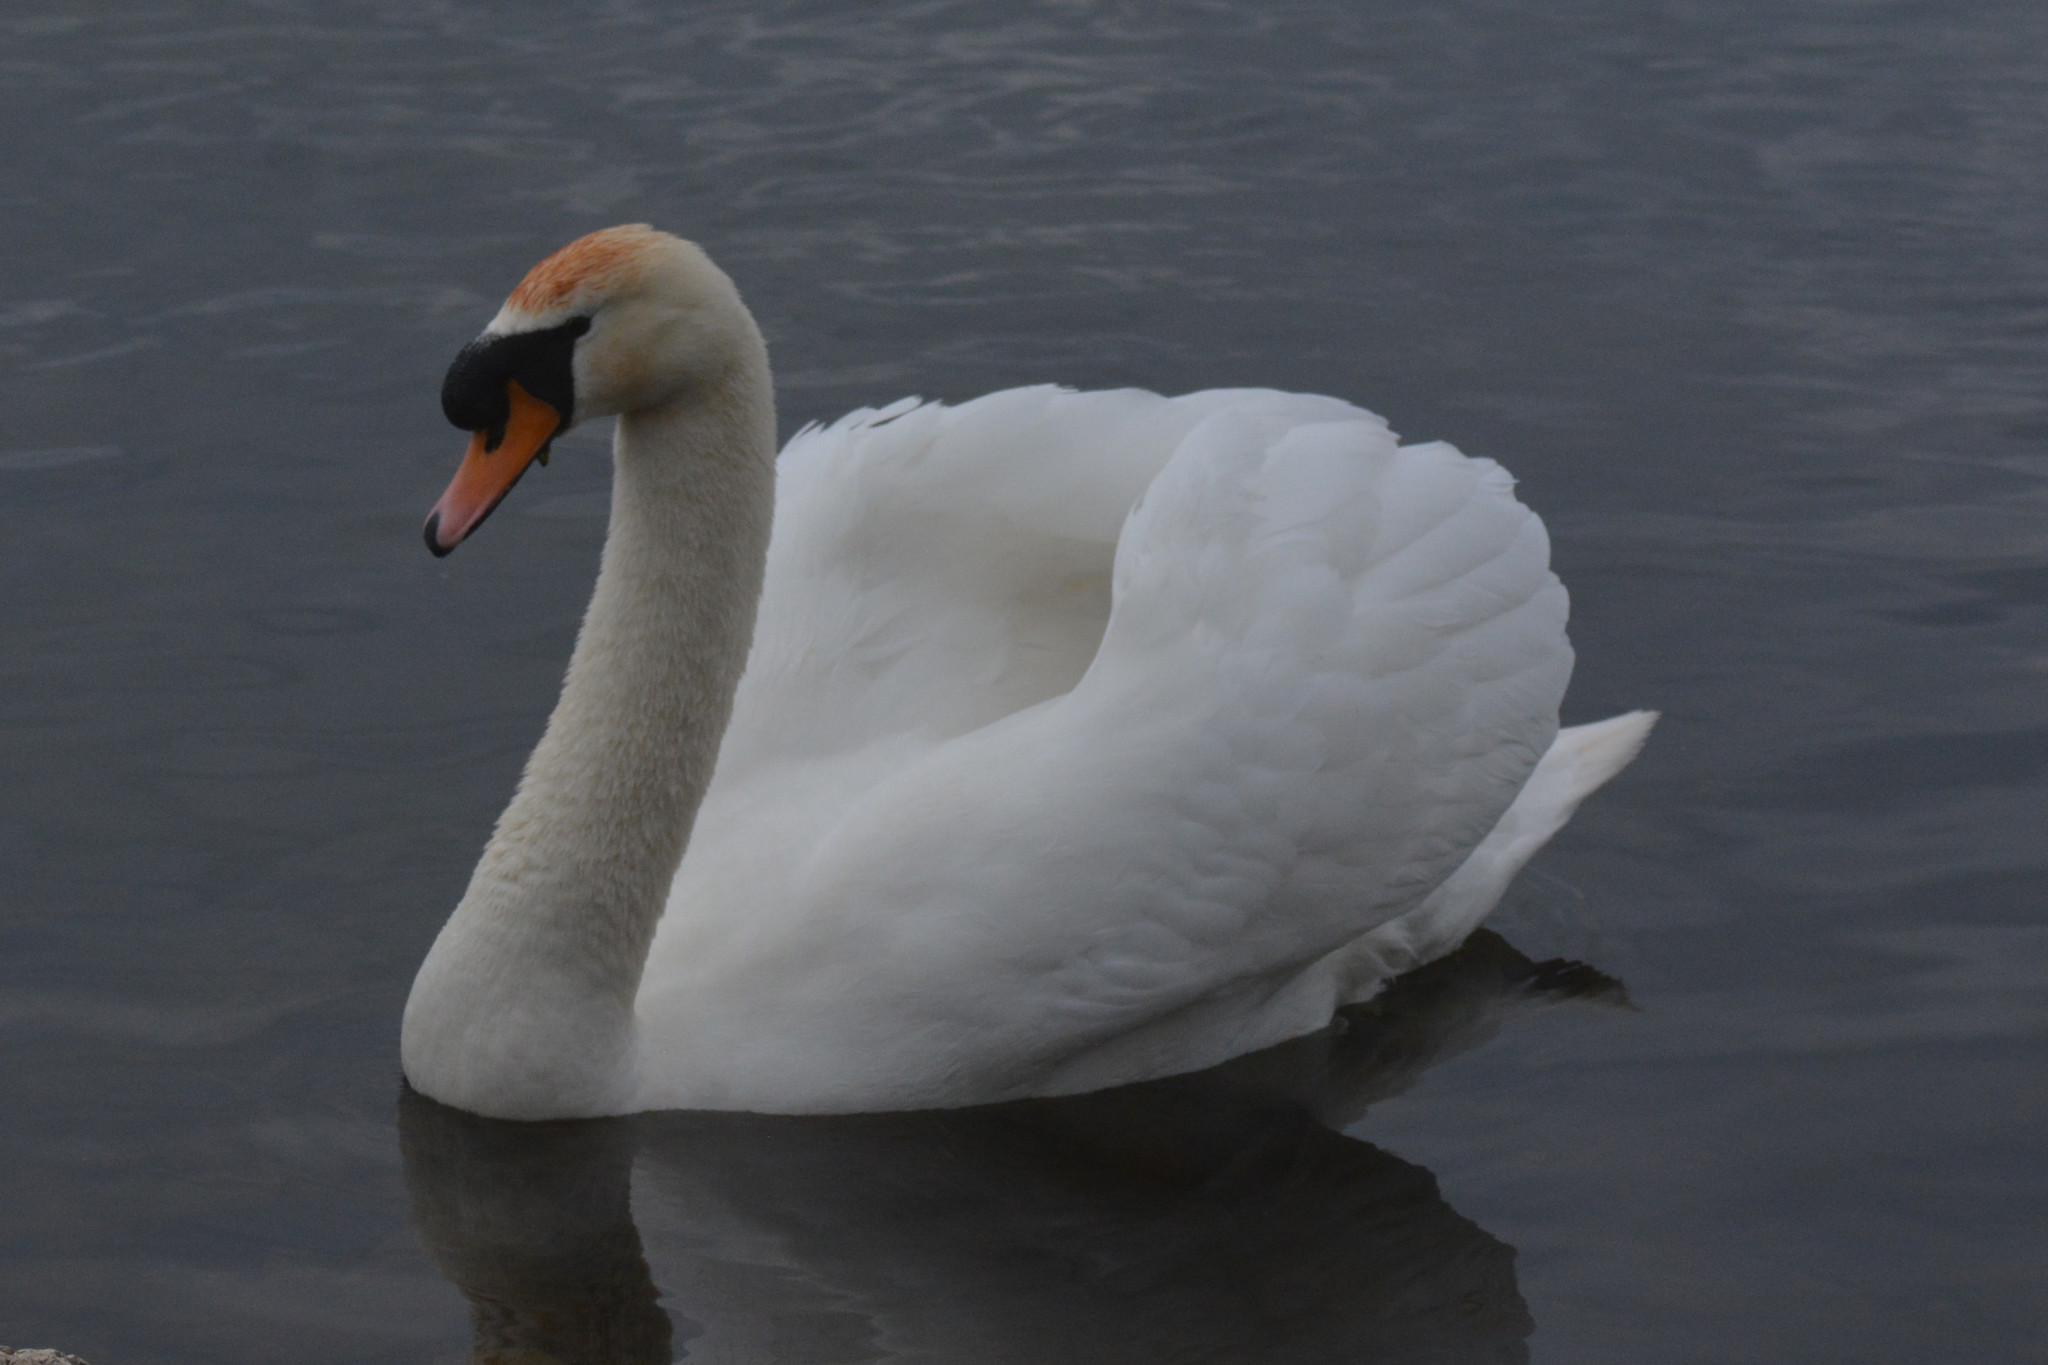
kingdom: Animalia
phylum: Chordata
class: Aves
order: Anseriformes
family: Anatidae
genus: Cygnus
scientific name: Cygnus olor
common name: Mute swan
